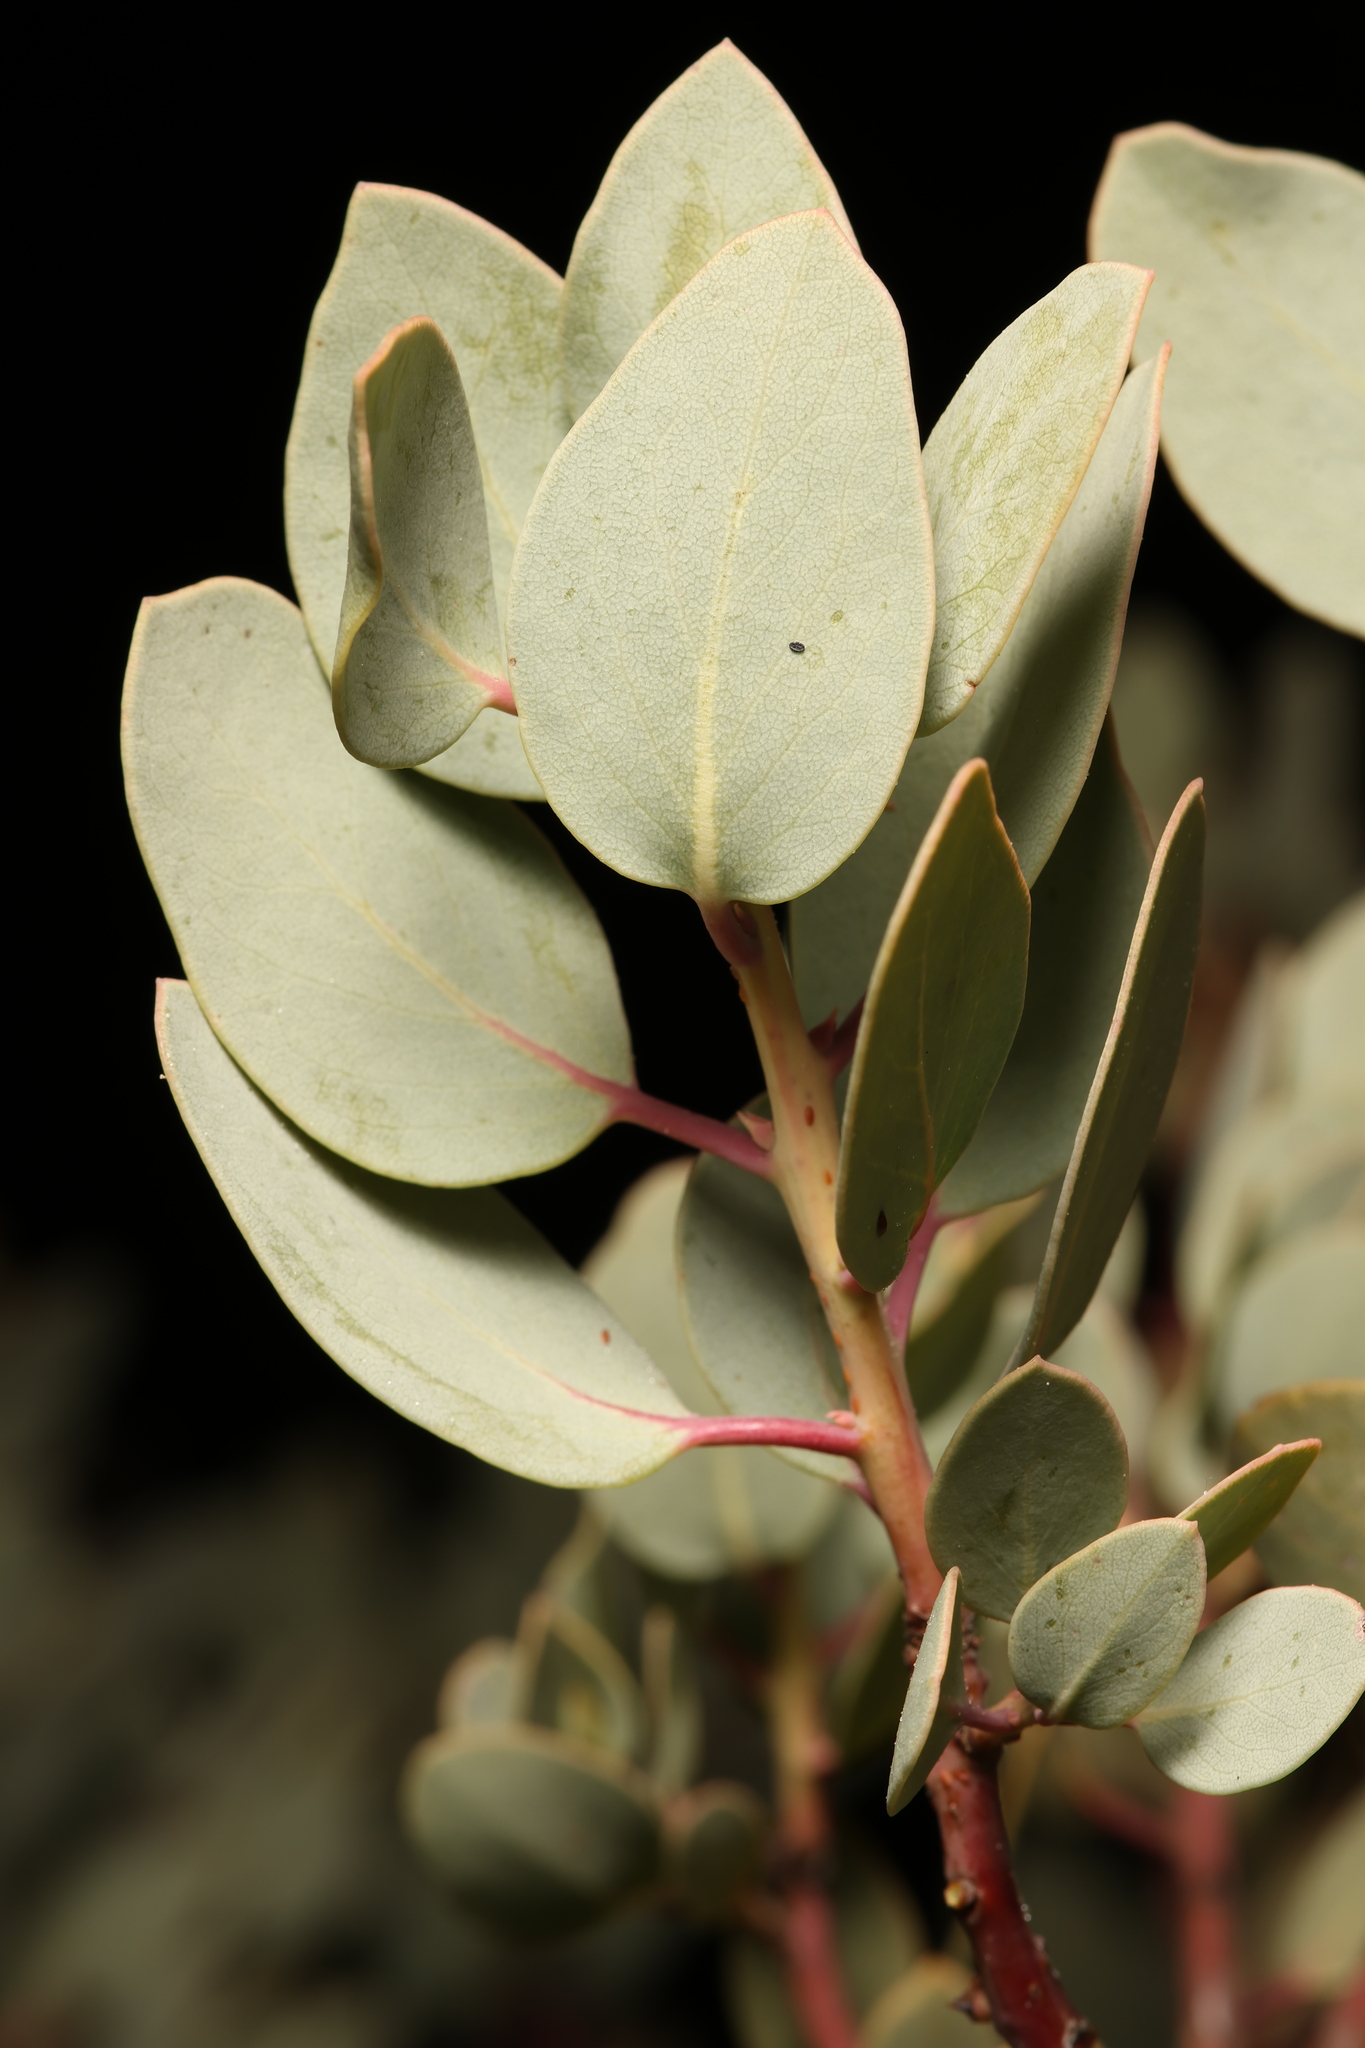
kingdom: Plantae
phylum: Tracheophyta
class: Magnoliopsida
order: Ericales
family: Ericaceae
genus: Arctostaphylos
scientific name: Arctostaphylos glauca
